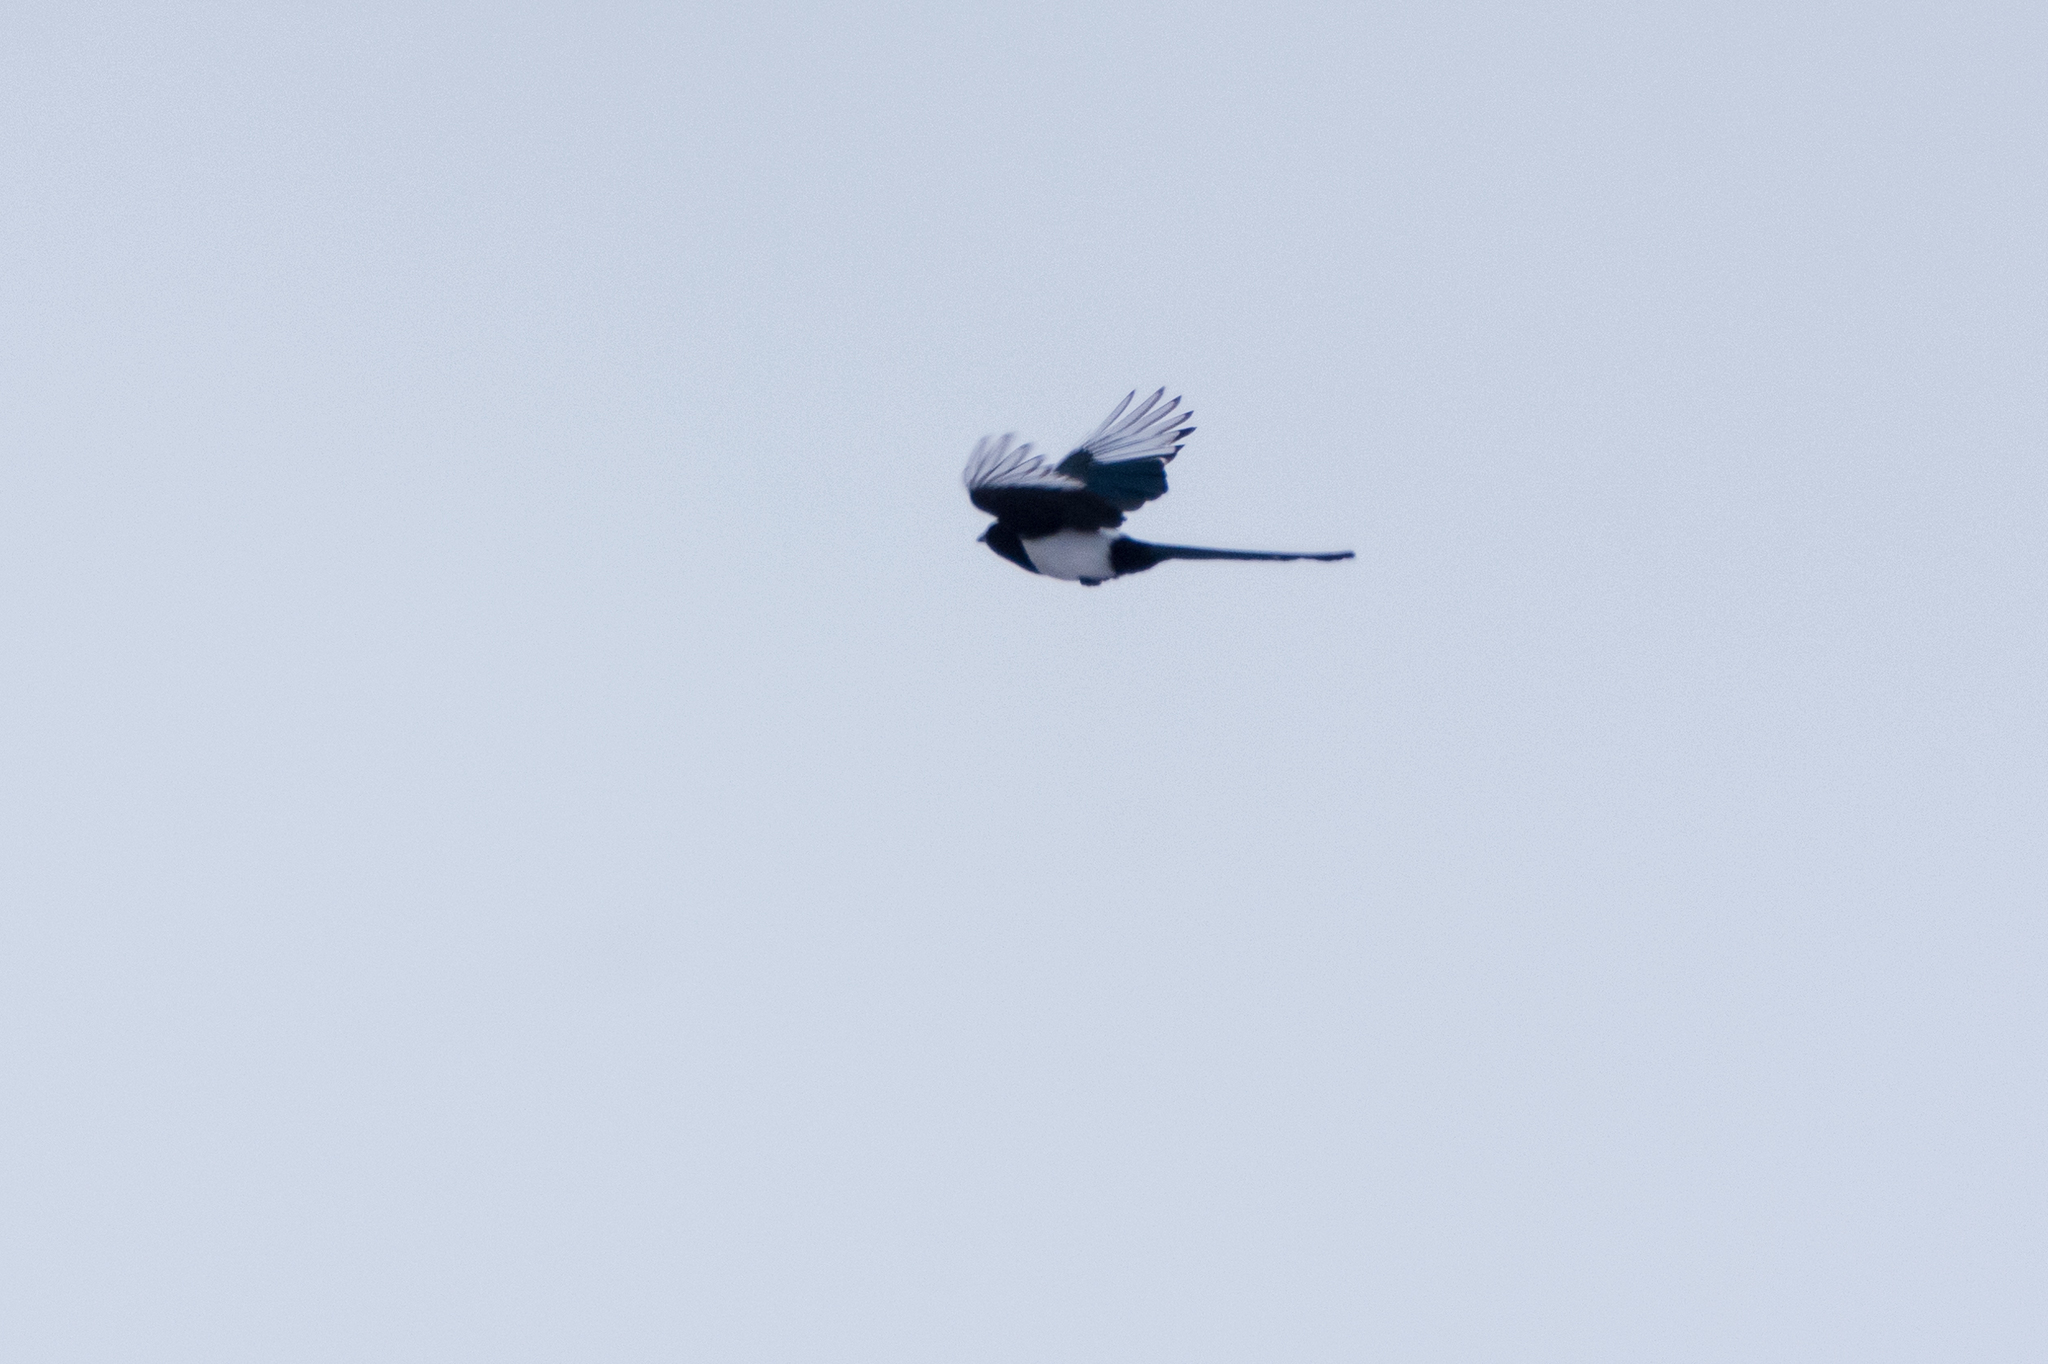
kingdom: Animalia
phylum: Chordata
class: Aves
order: Passeriformes
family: Corvidae
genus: Pica
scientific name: Pica pica
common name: Eurasian magpie
